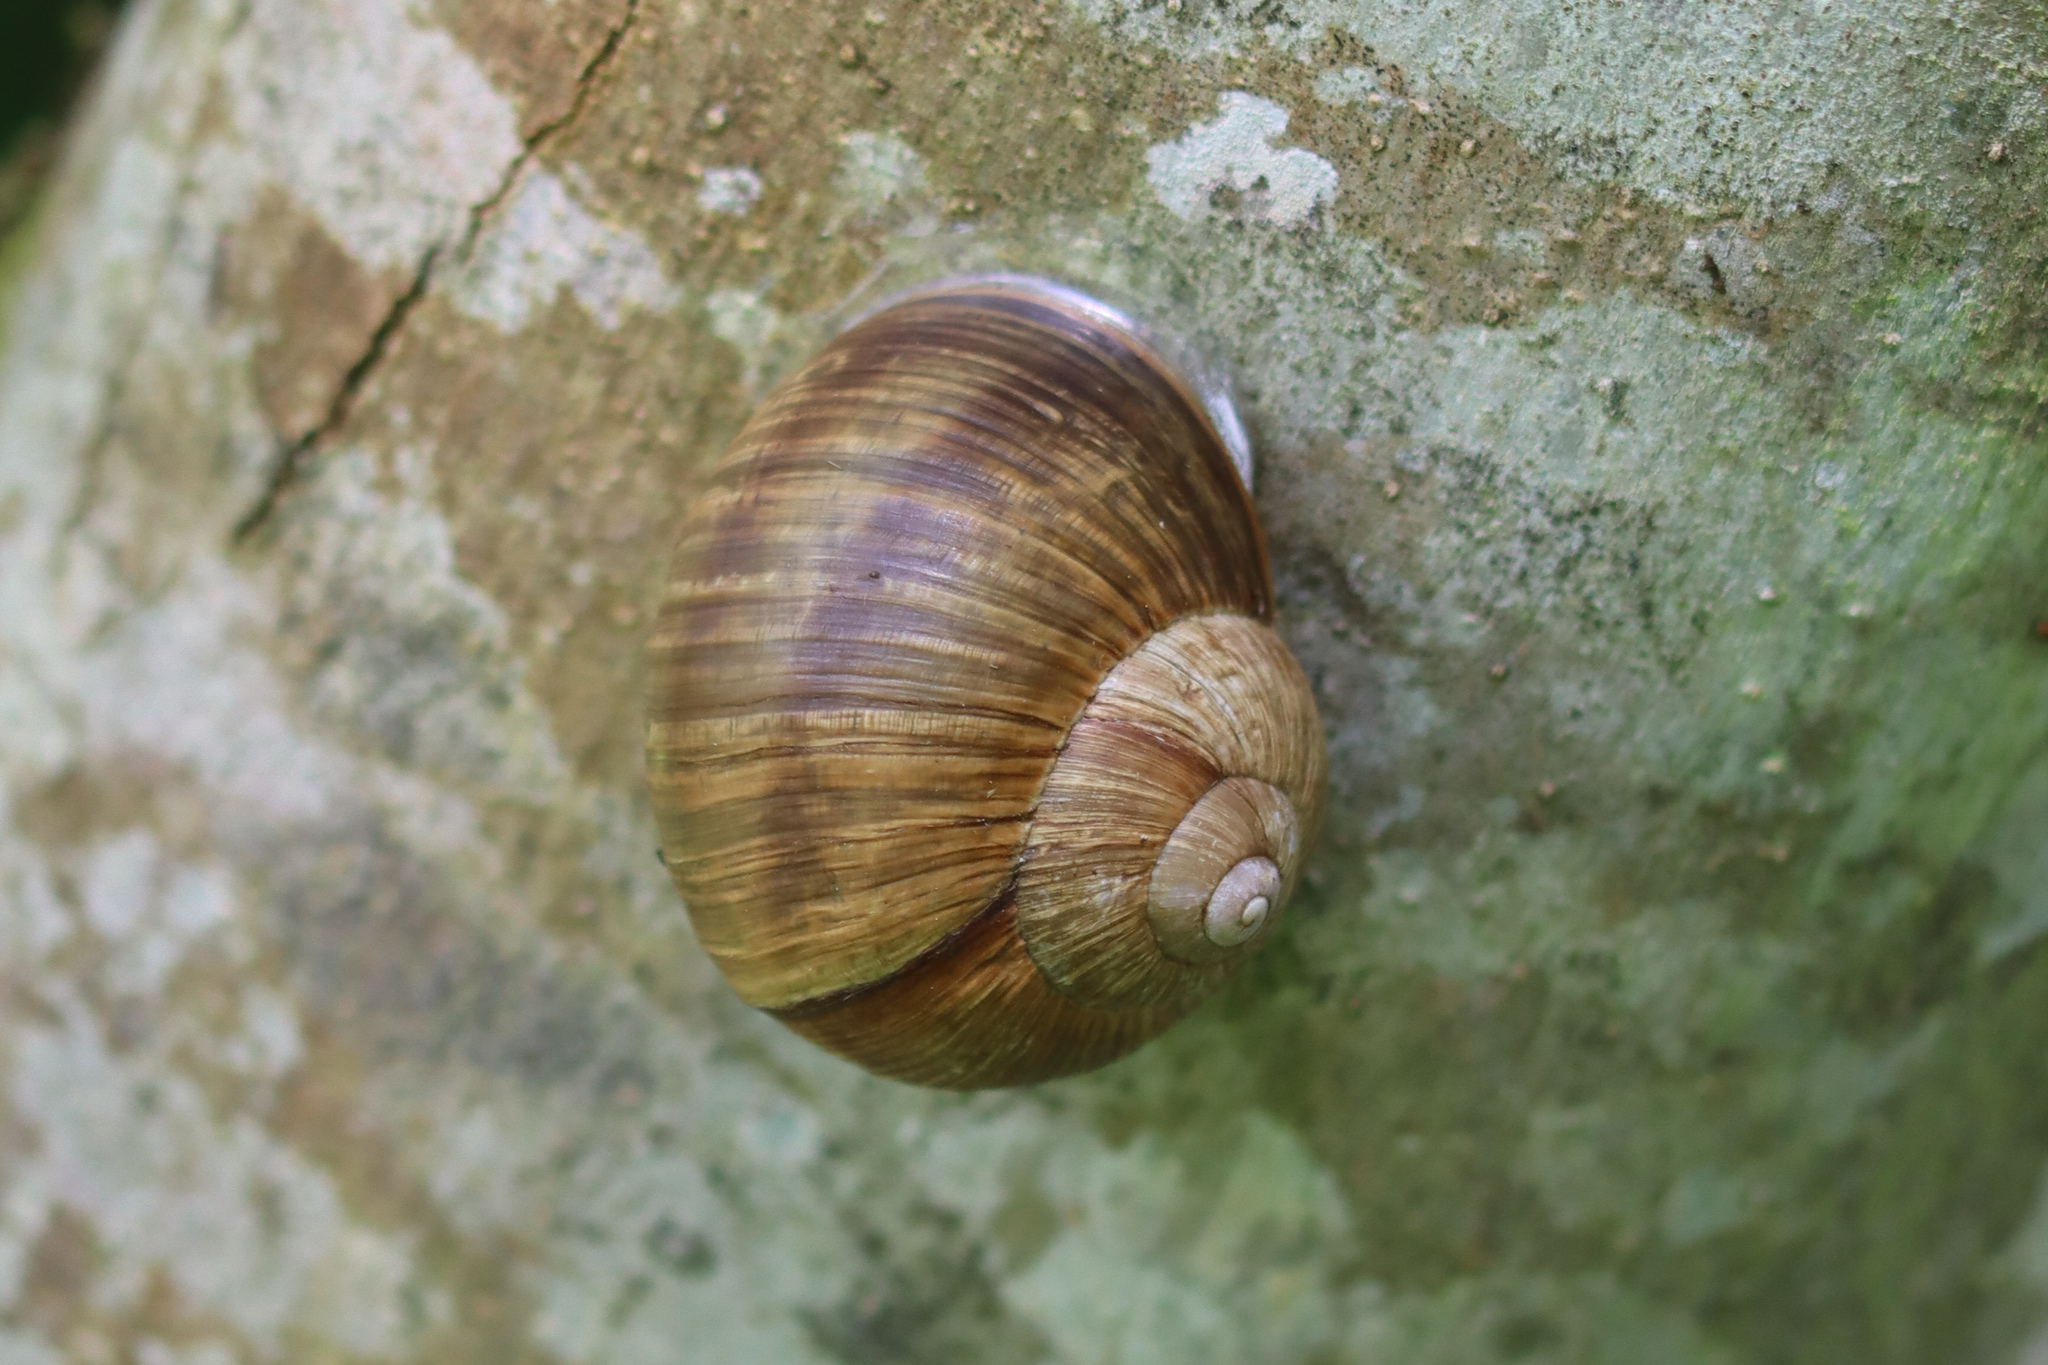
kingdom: Animalia
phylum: Mollusca
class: Gastropoda
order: Stylommatophora
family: Helicidae
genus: Helix
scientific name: Helix pomatia
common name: Roman snail
